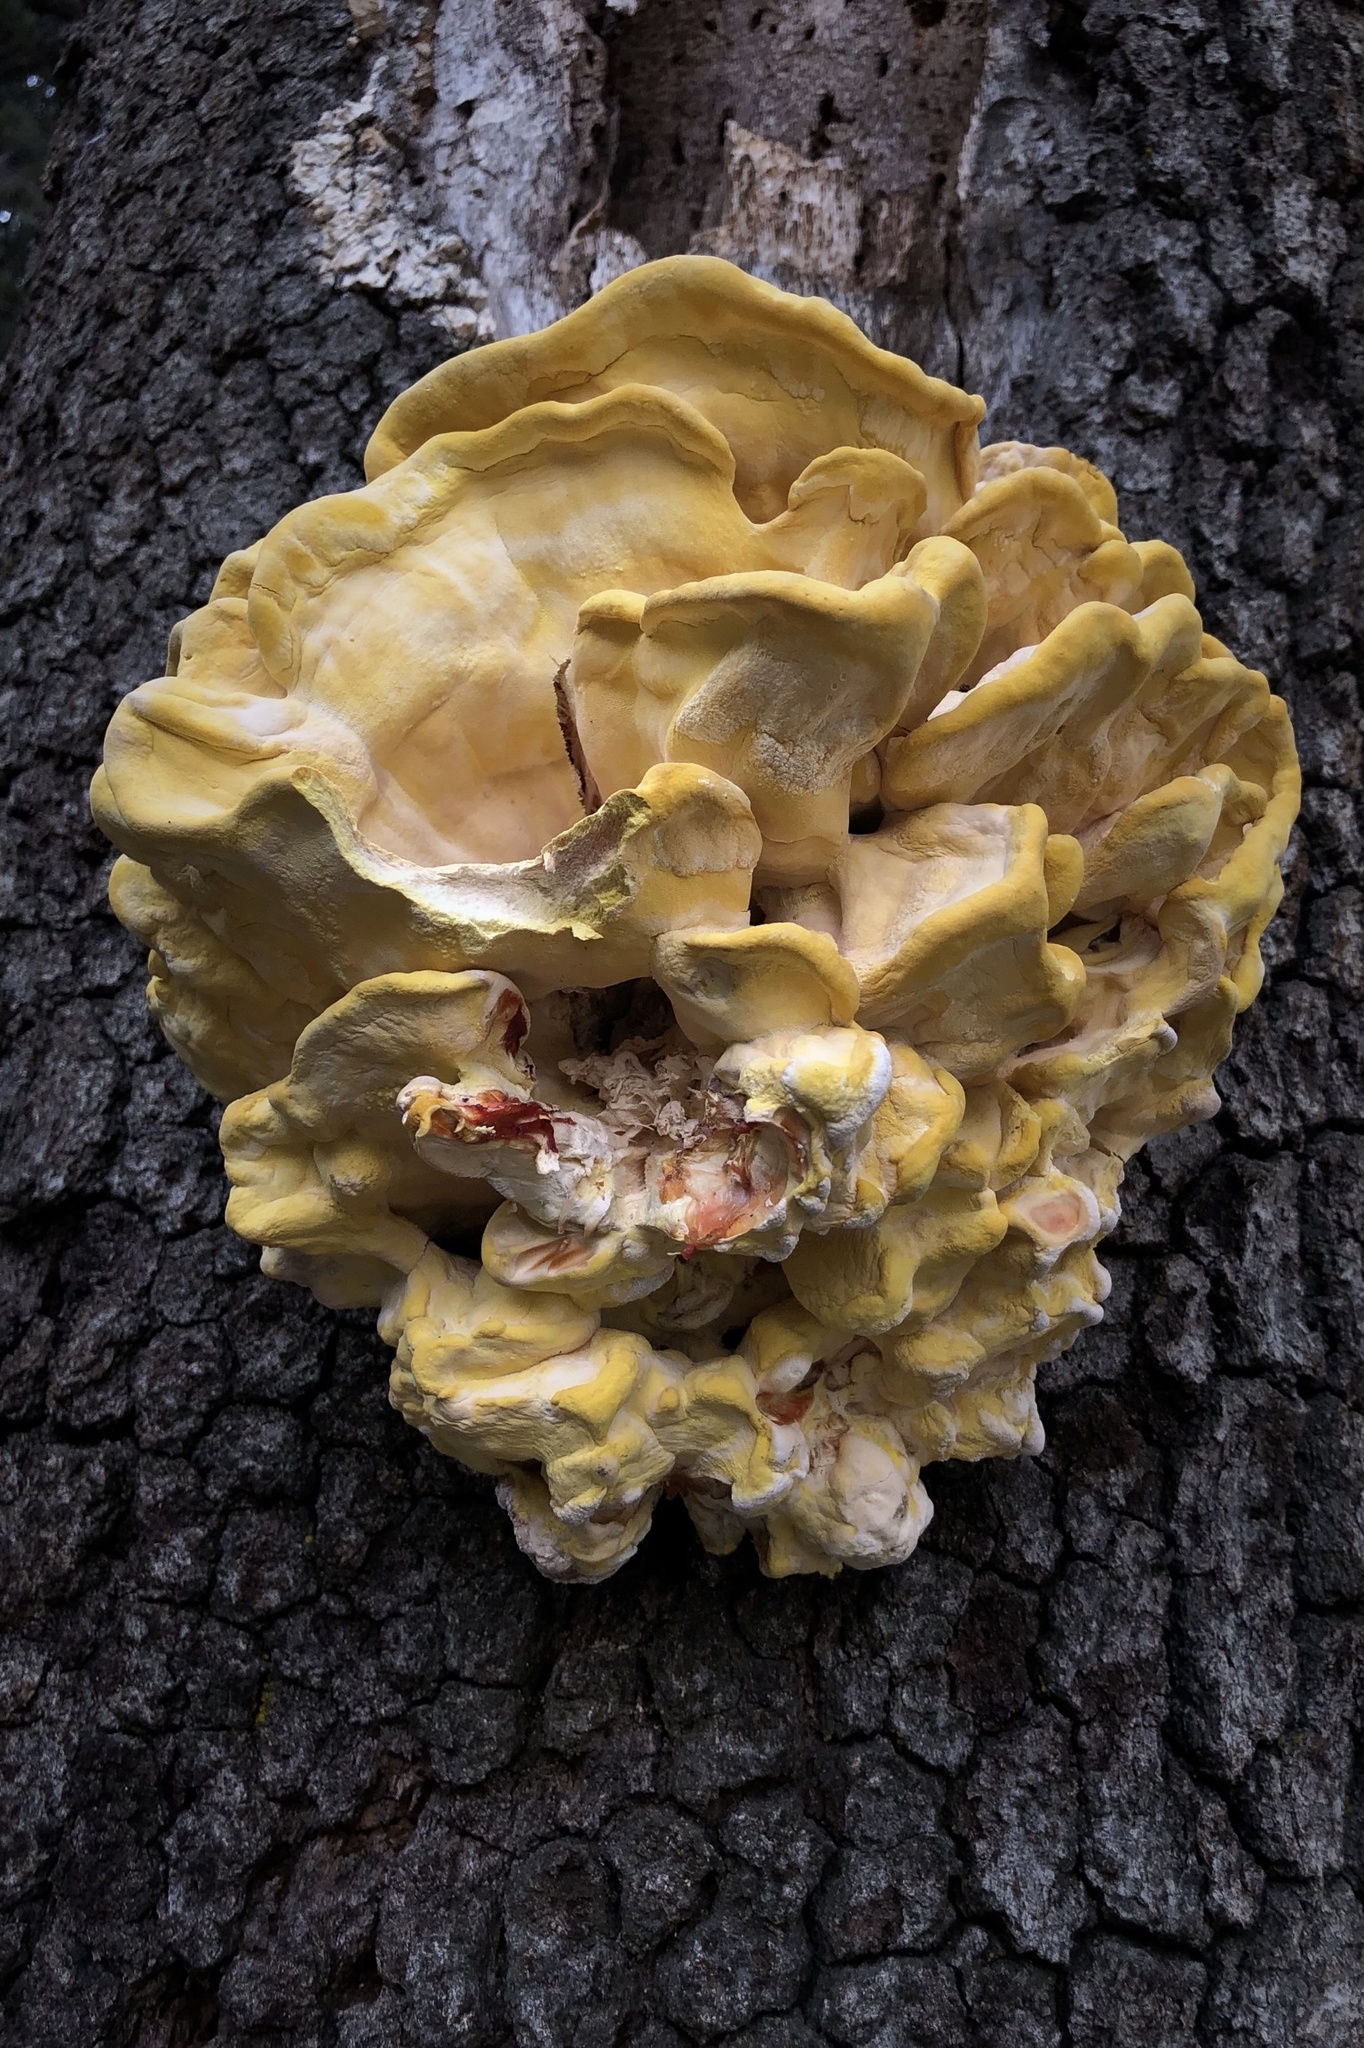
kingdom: Fungi
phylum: Basidiomycota
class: Agaricomycetes
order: Polyporales
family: Laetiporaceae
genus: Laetiporus
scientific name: Laetiporus gilbertsonii
